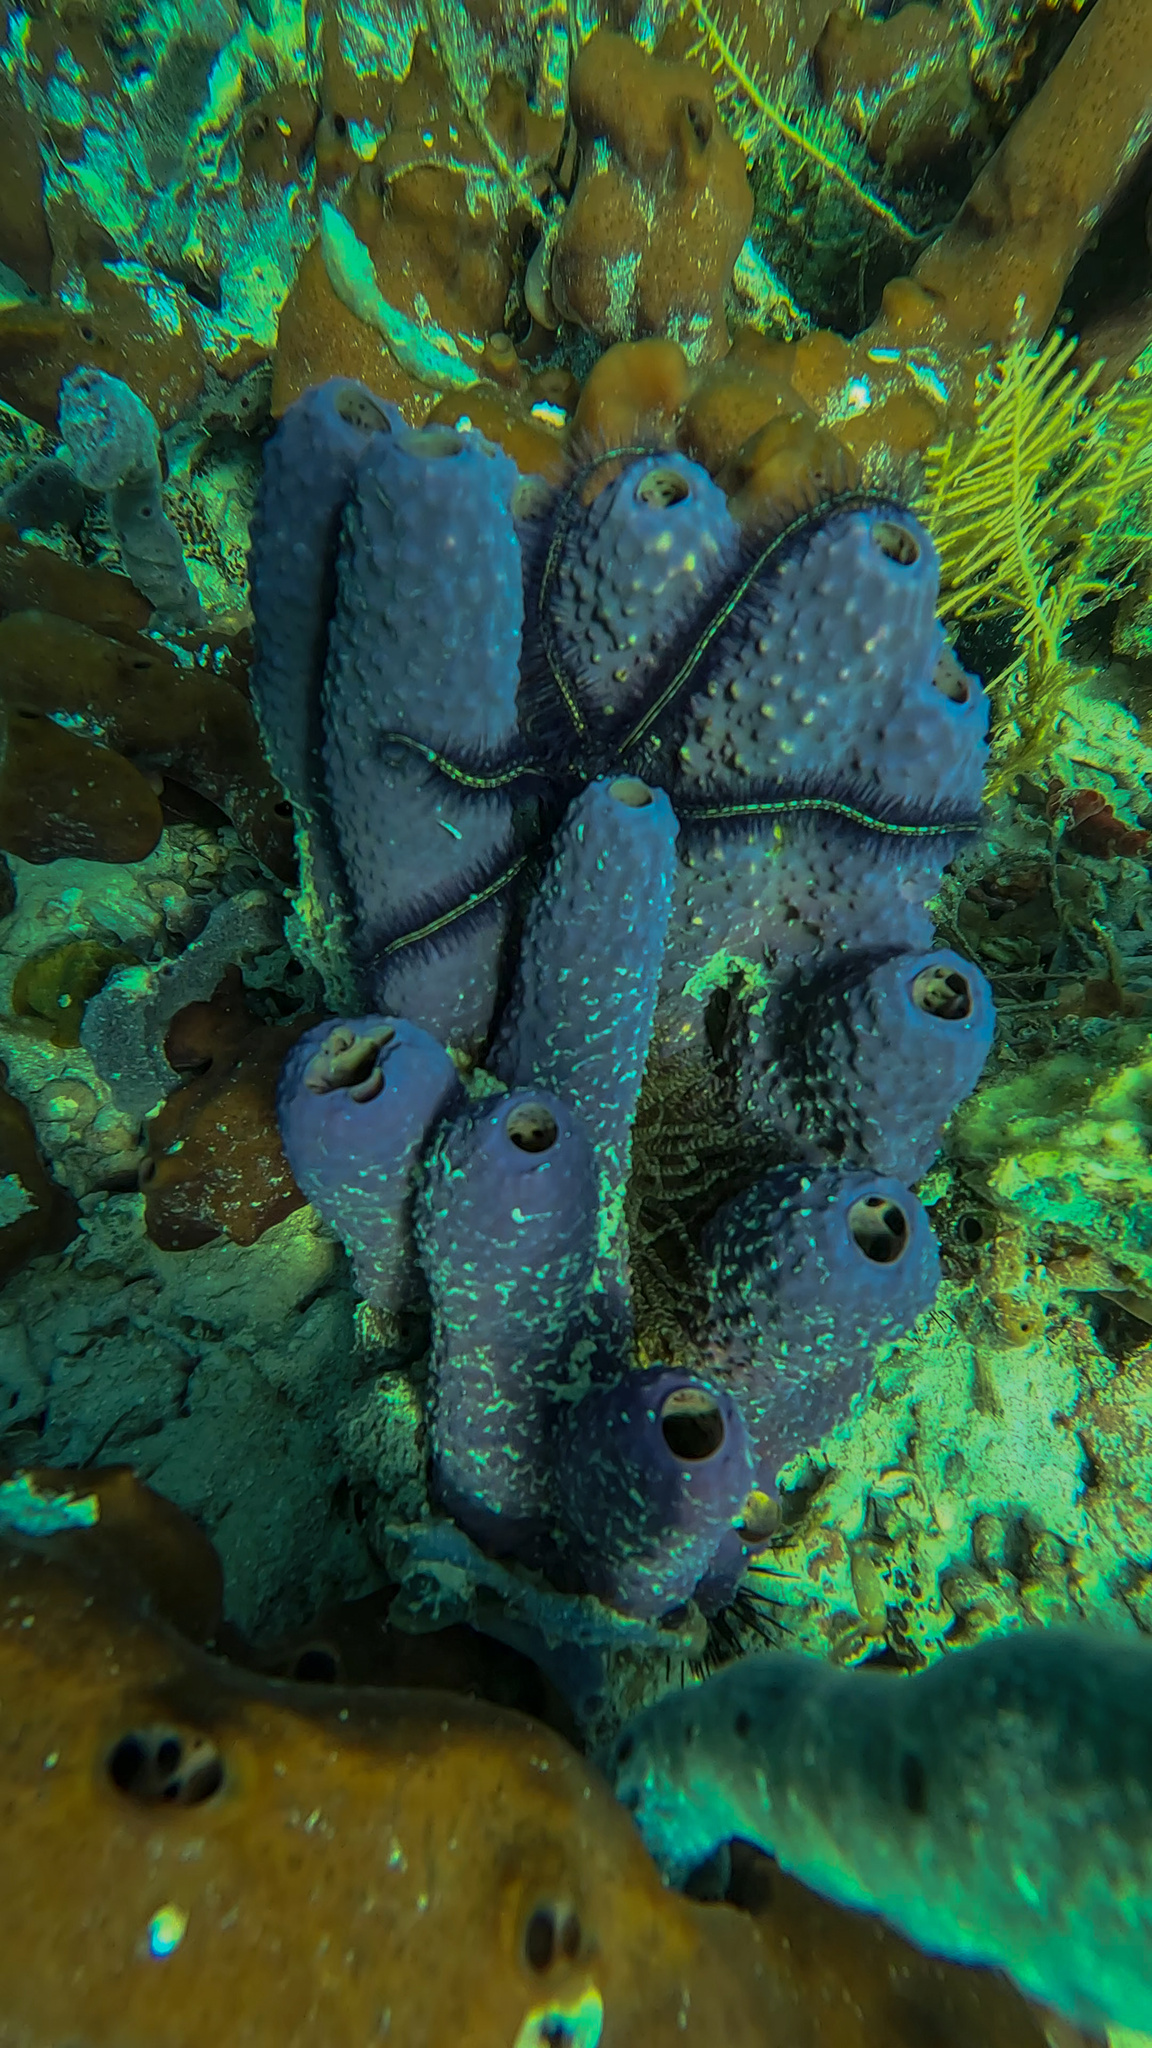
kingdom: Animalia
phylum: Porifera
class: Demospongiae
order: Verongiida
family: Aplysinidae
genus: Aiolochroia
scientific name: Aiolochroia crassa
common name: Branching tube sponge
